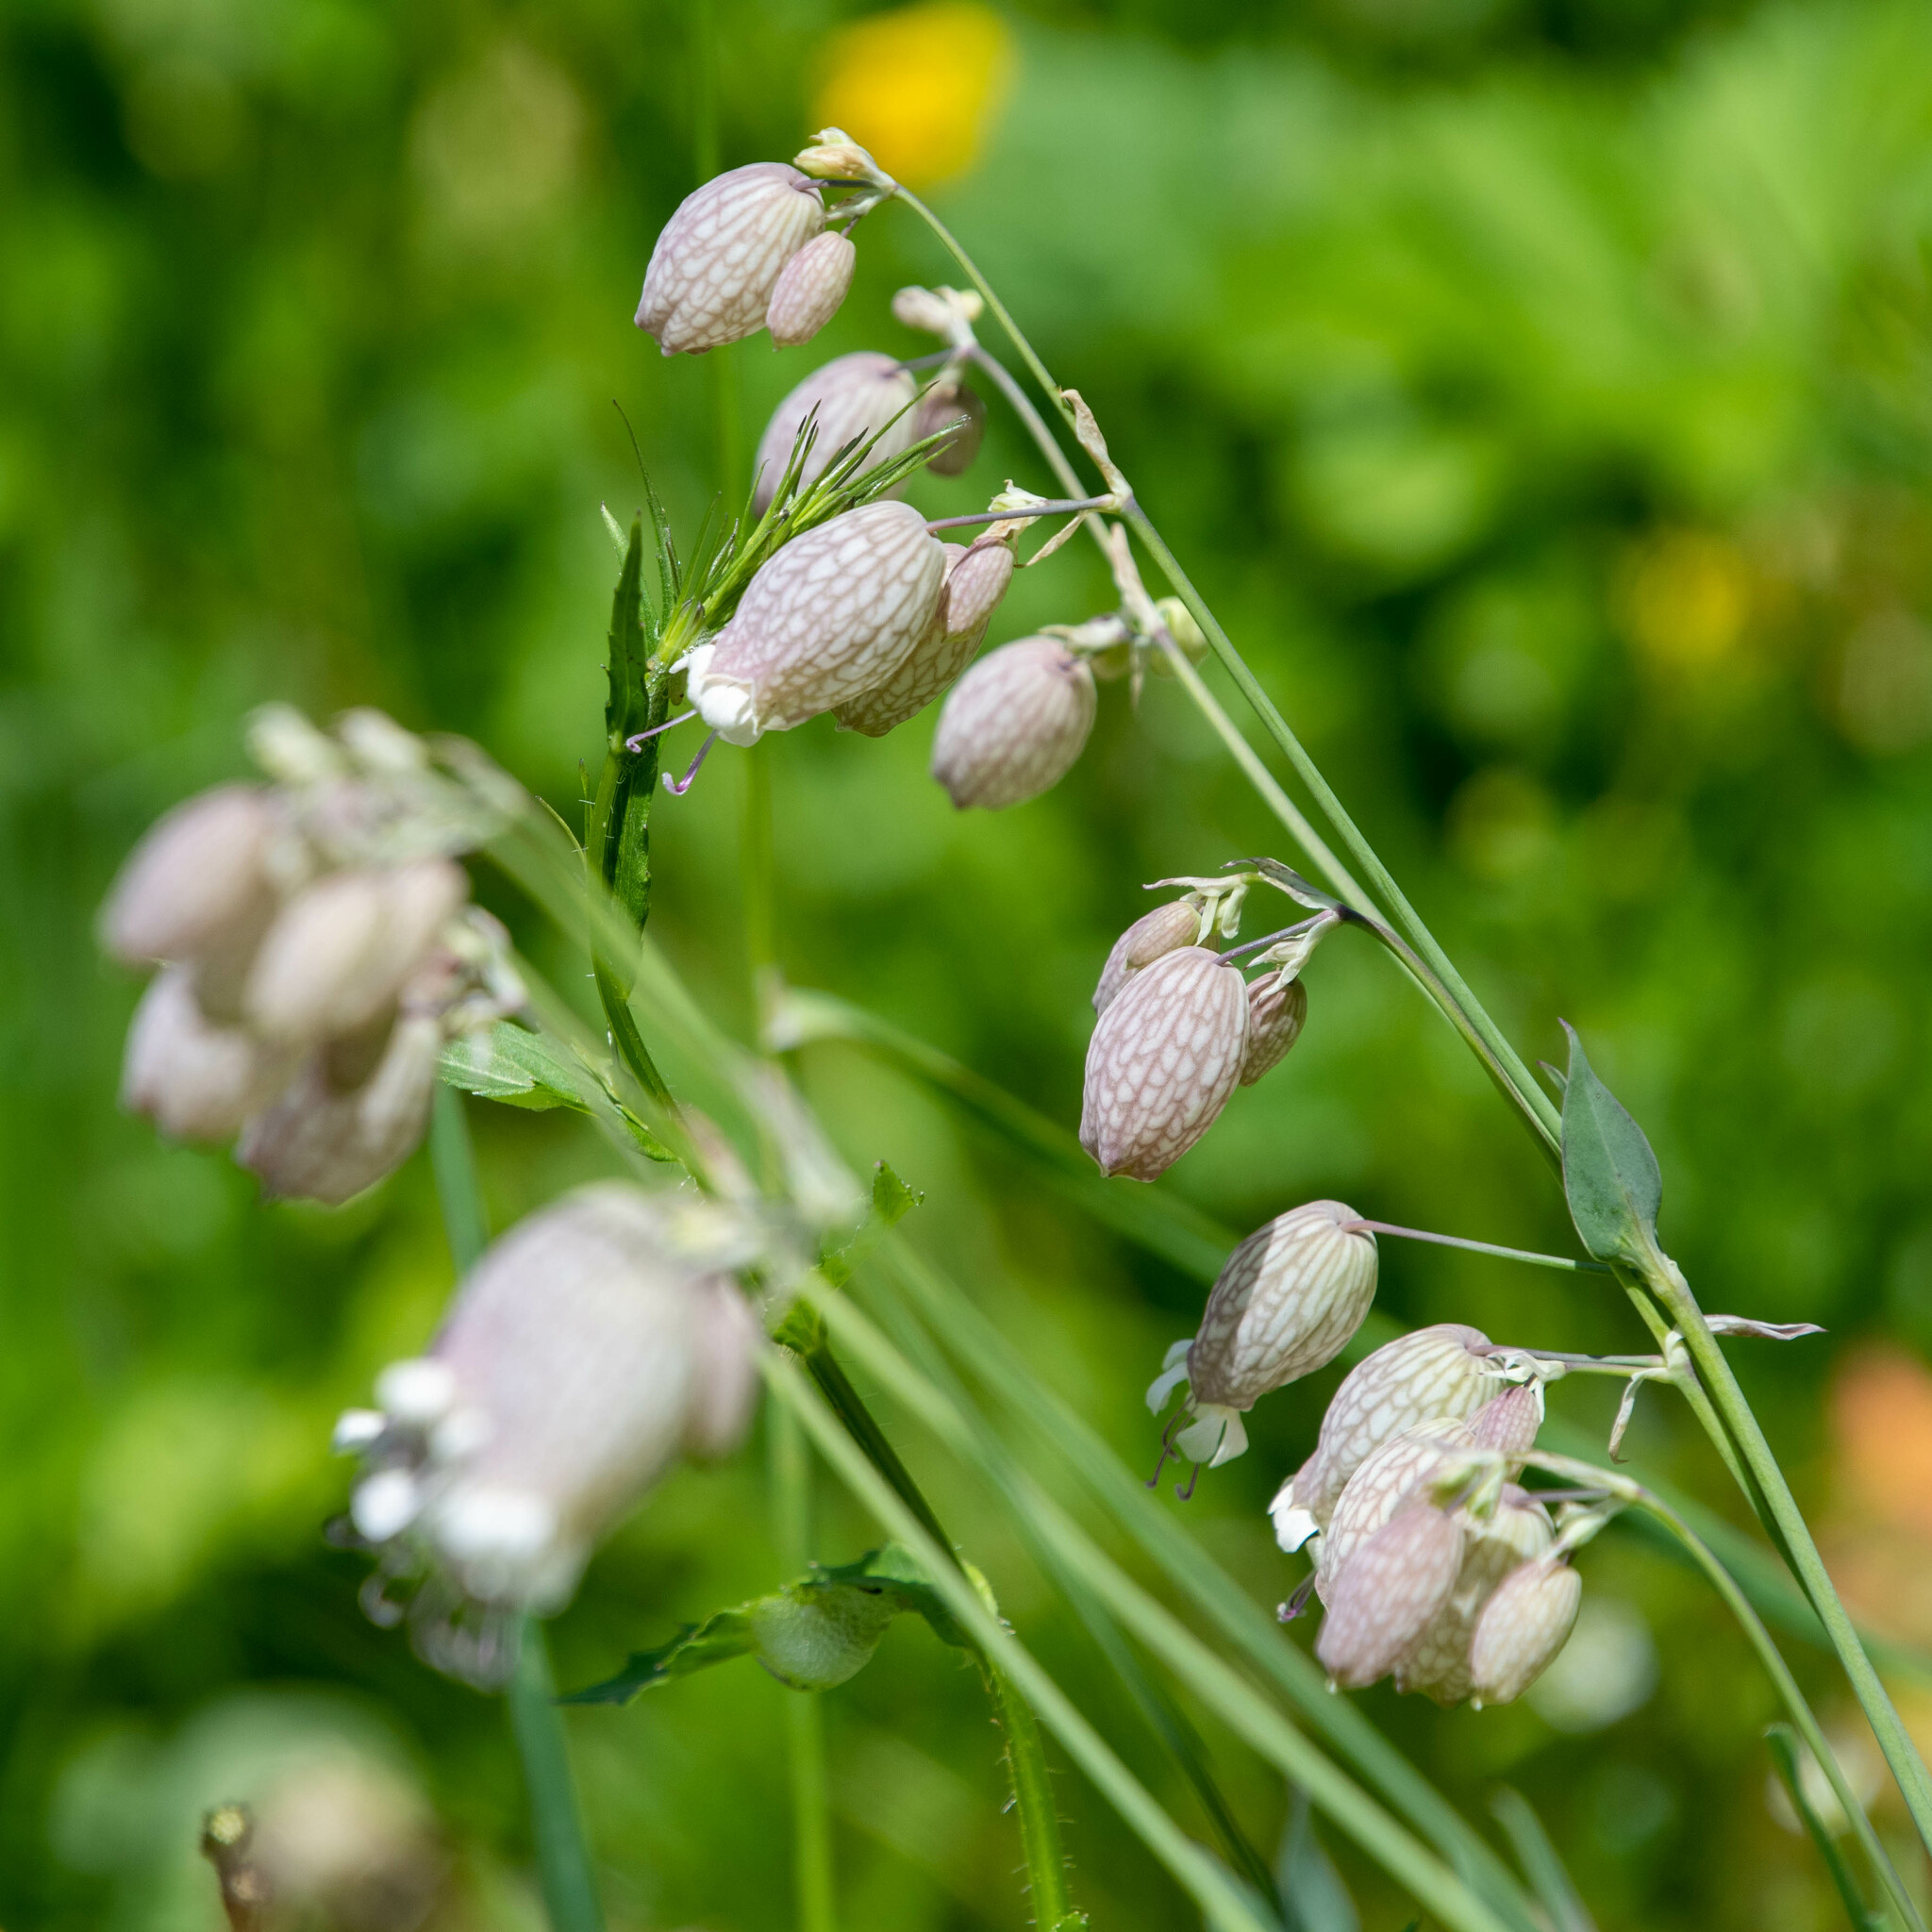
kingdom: Plantae
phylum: Tracheophyta
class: Magnoliopsida
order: Caryophyllales
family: Caryophyllaceae
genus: Silene
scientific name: Silene vulgaris
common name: Bladder campion
